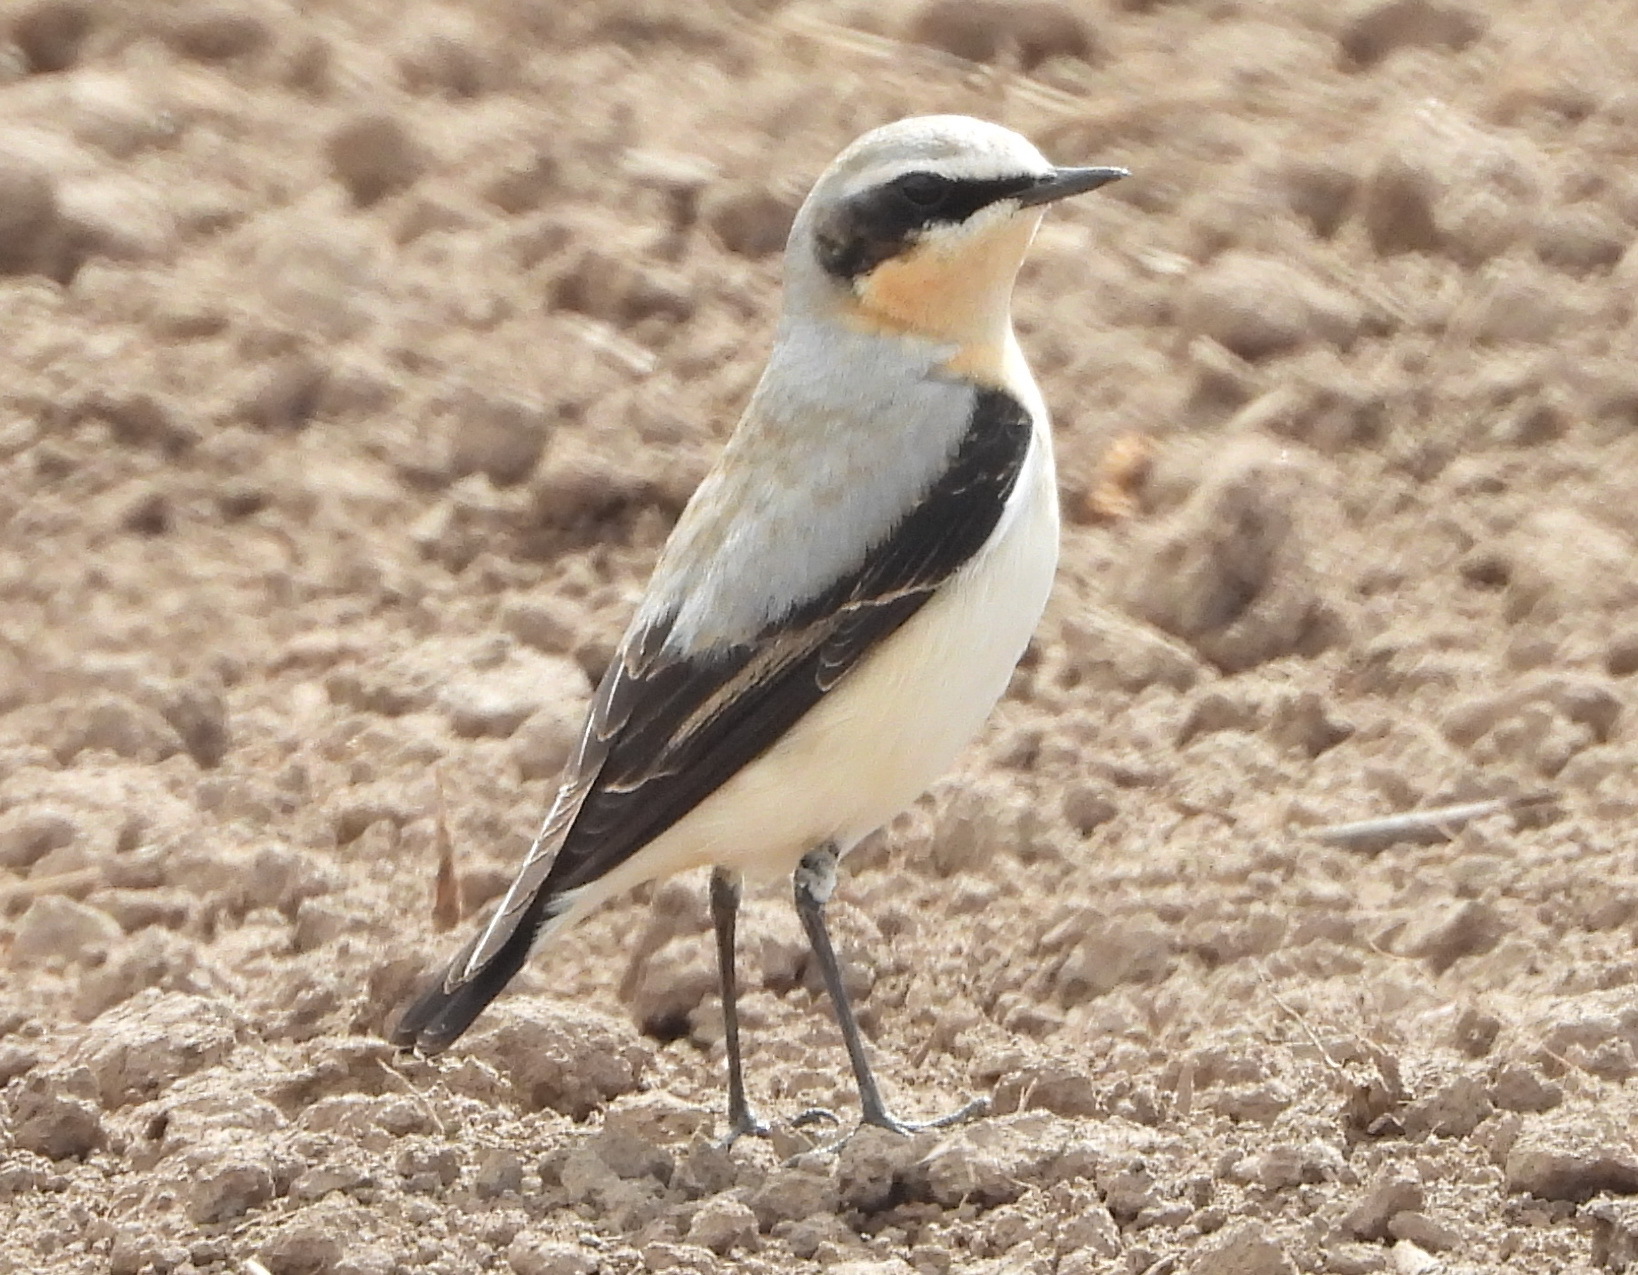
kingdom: Animalia
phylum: Chordata
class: Aves
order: Passeriformes
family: Muscicapidae
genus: Oenanthe
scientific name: Oenanthe oenanthe
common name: Northern wheatear
